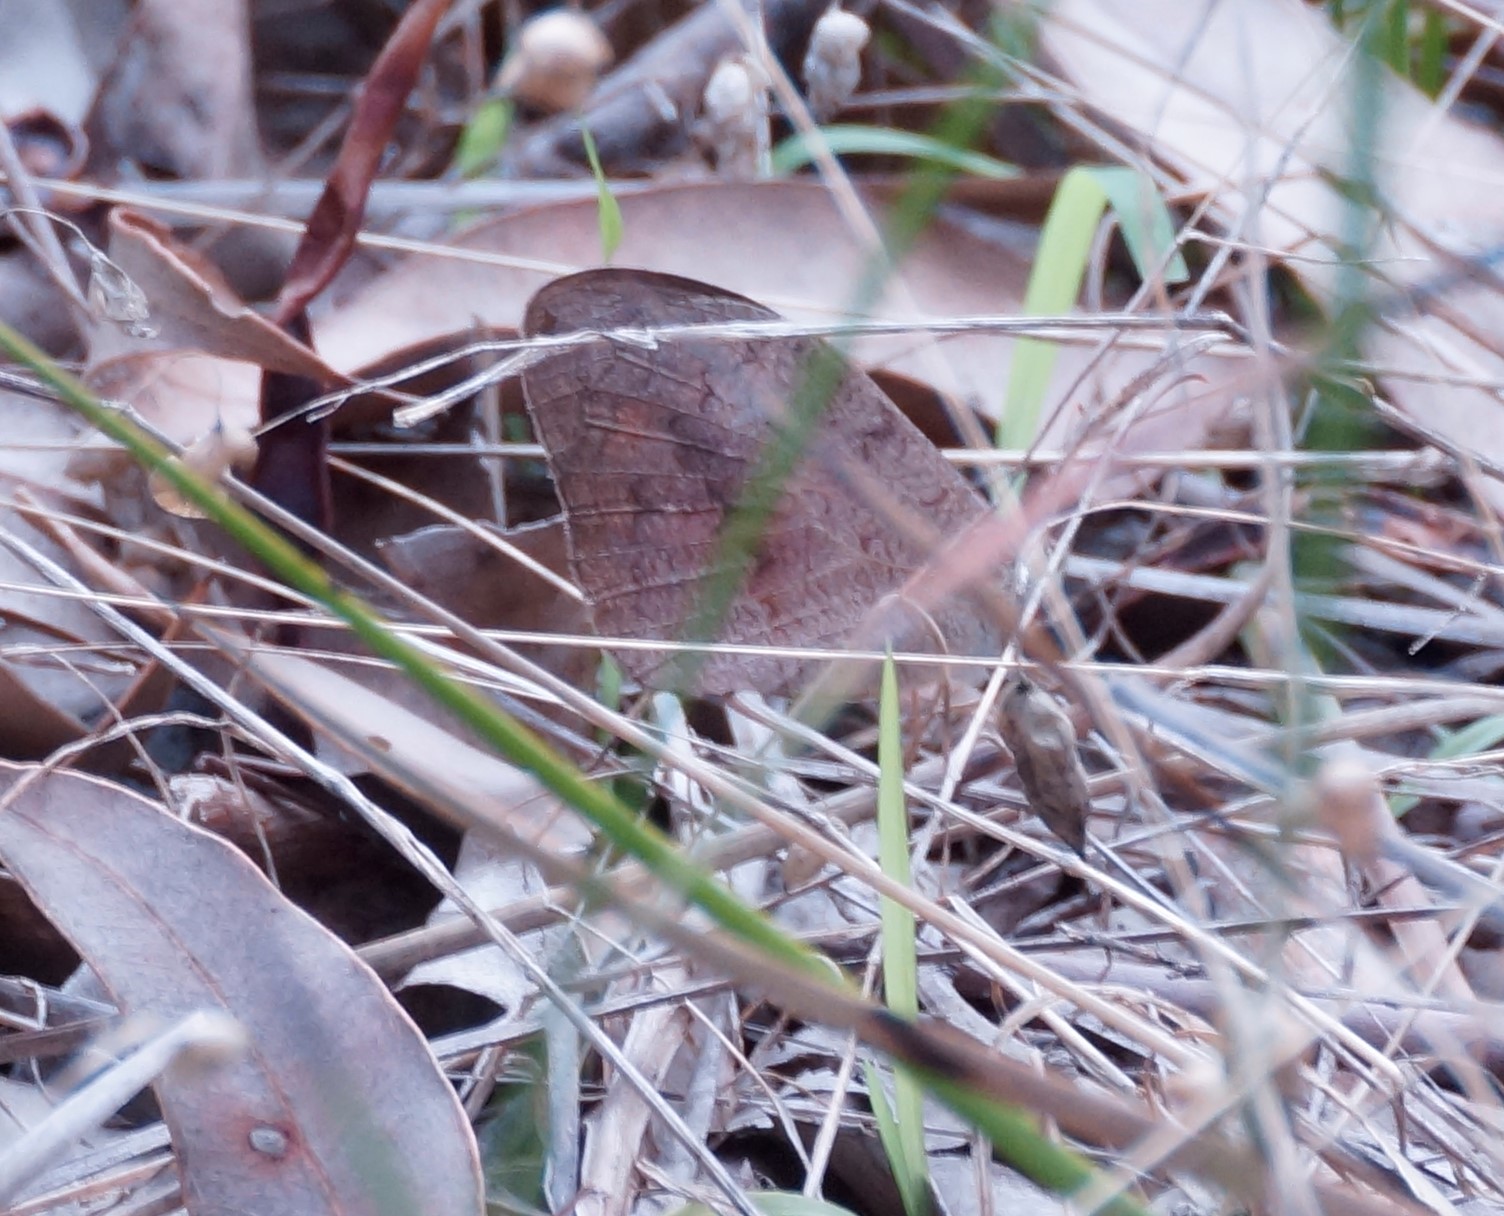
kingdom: Animalia
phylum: Arthropoda
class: Insecta
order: Lepidoptera
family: Nymphalidae
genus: Heteronympha
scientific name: Heteronympha merope
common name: Common brown
